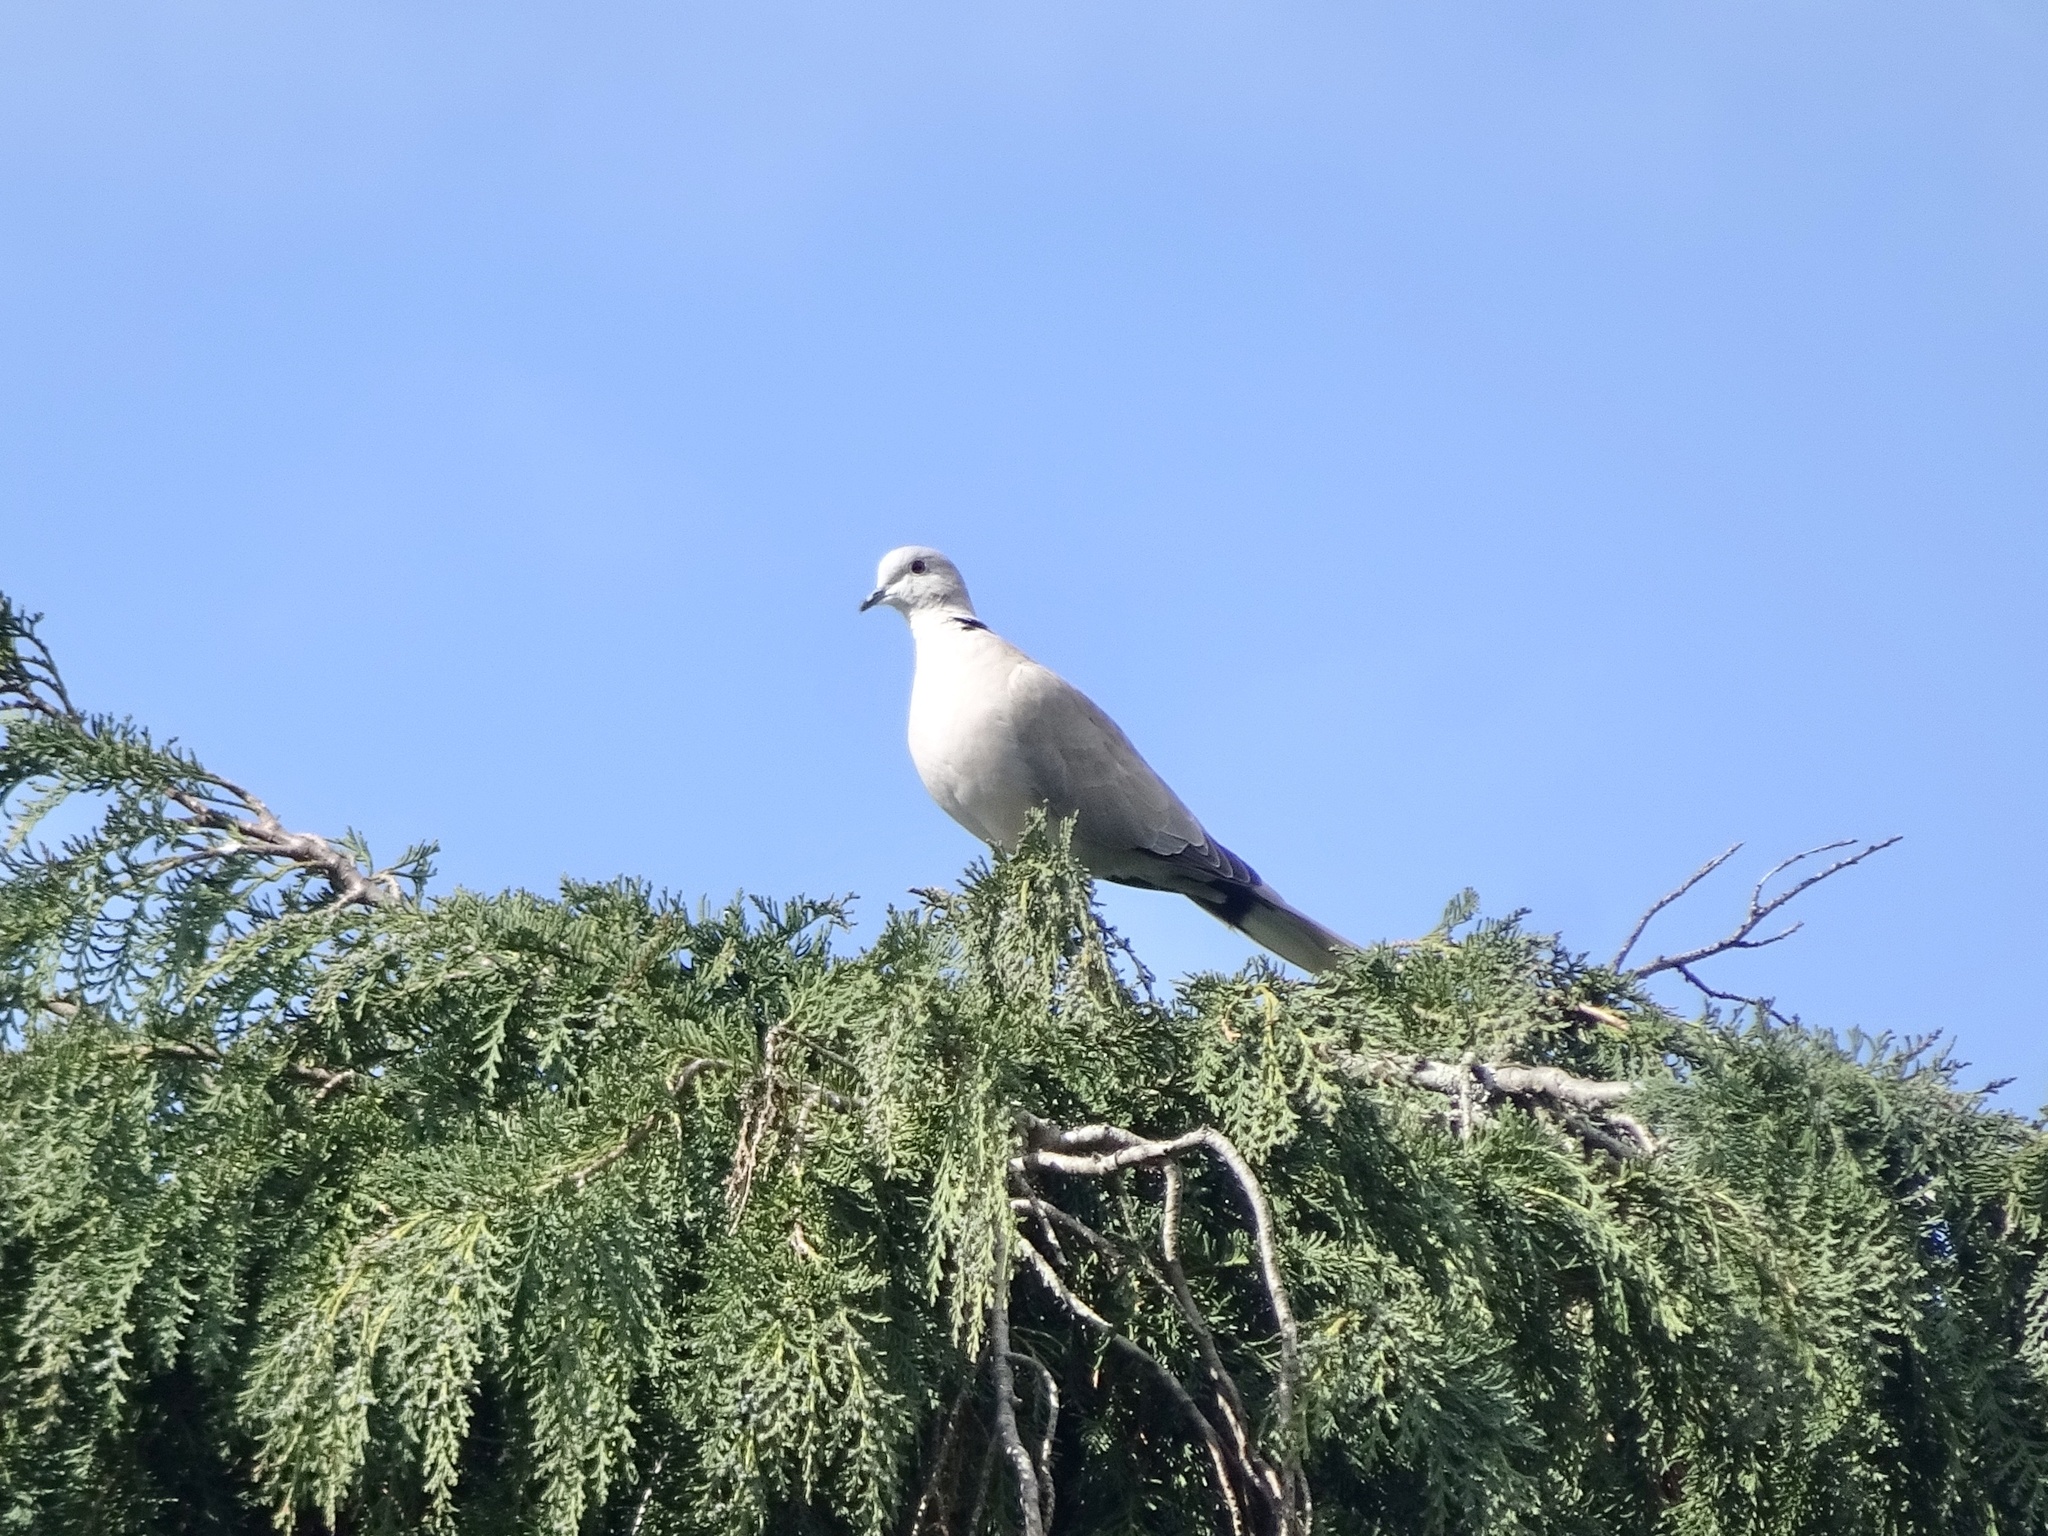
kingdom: Animalia
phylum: Chordata
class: Aves
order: Columbiformes
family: Columbidae
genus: Streptopelia
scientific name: Streptopelia decaocto
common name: Eurasian collared dove
